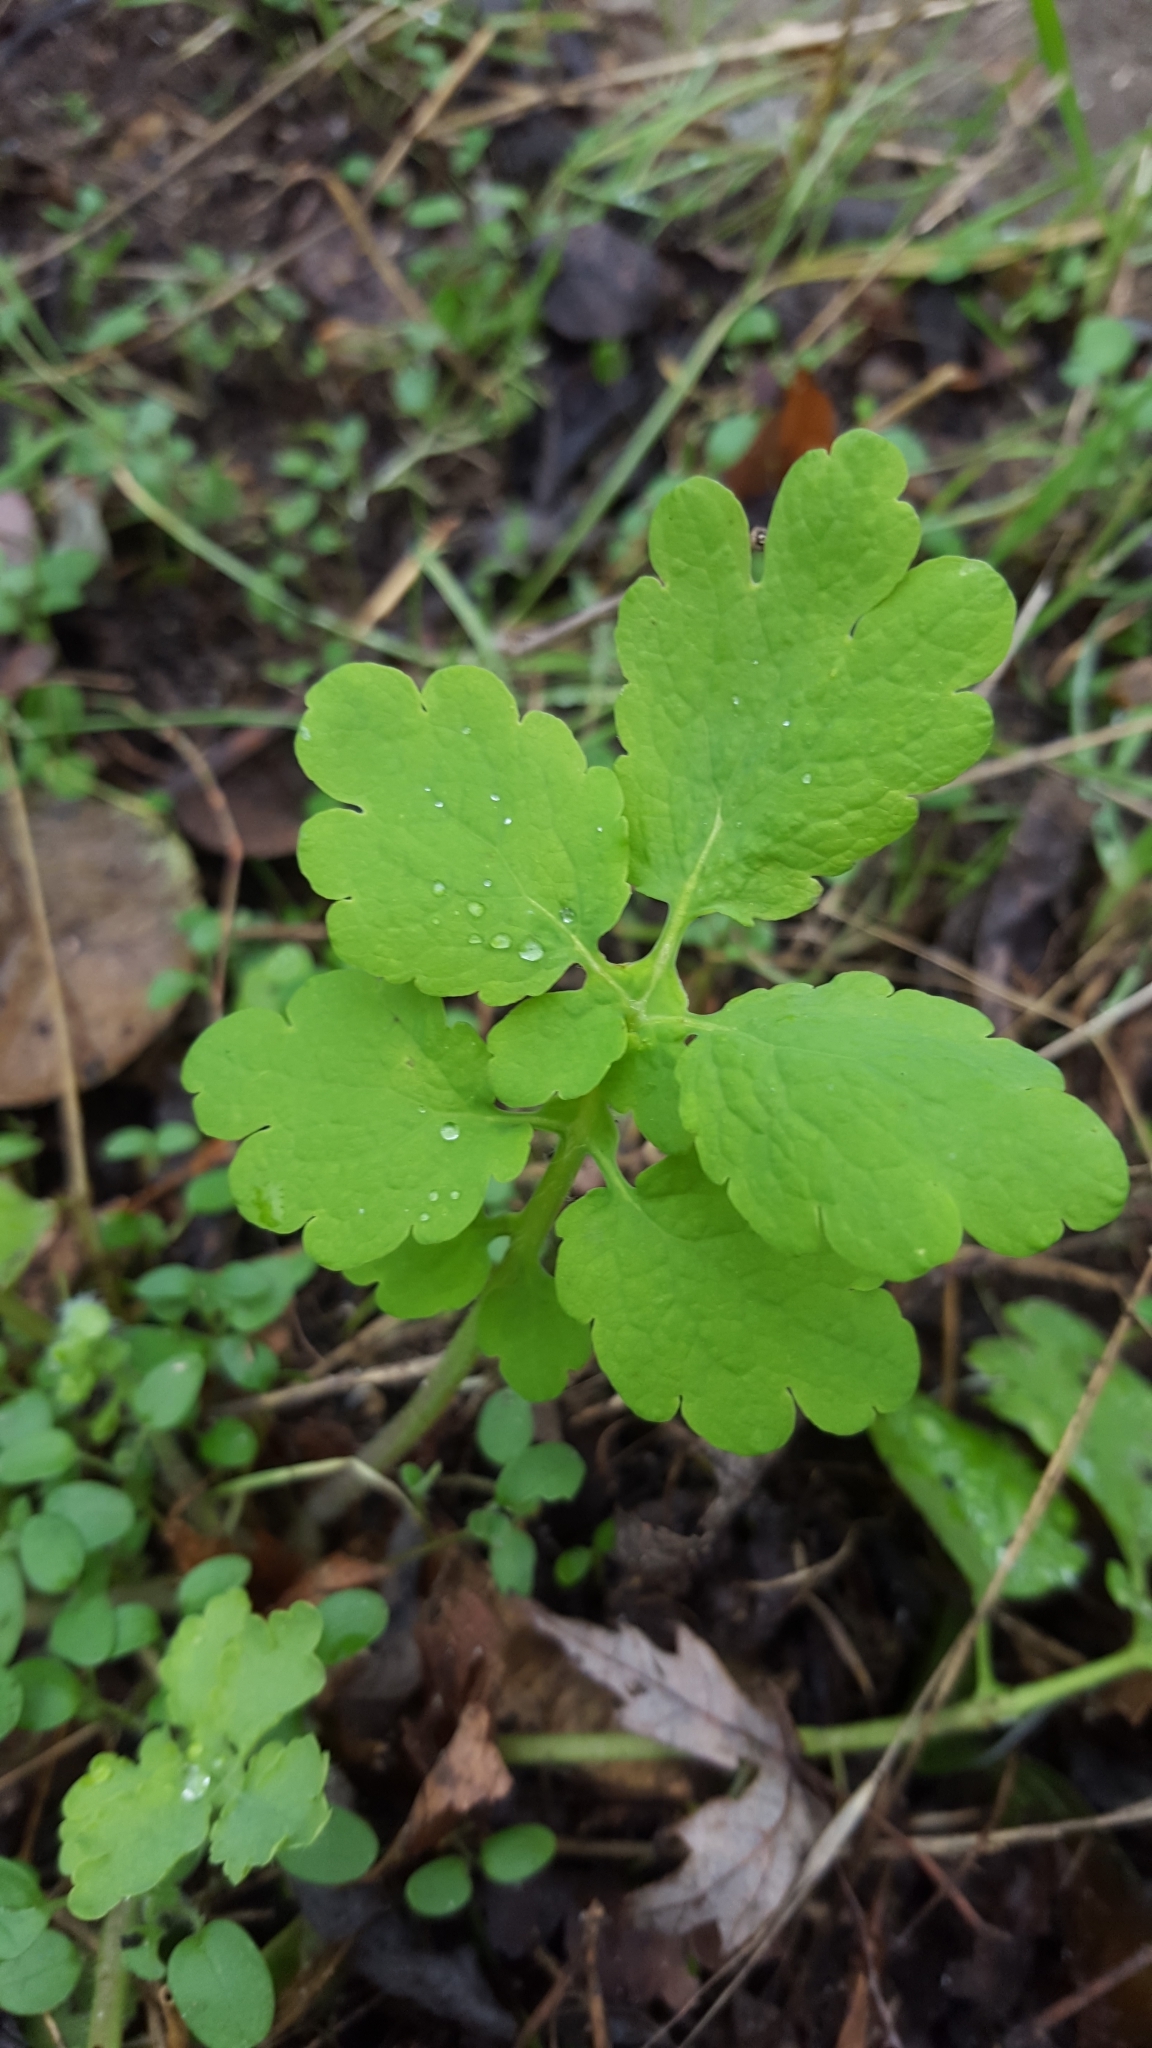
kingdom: Plantae
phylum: Tracheophyta
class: Magnoliopsida
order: Ranunculales
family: Papaveraceae
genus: Chelidonium
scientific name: Chelidonium majus
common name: Greater celandine
